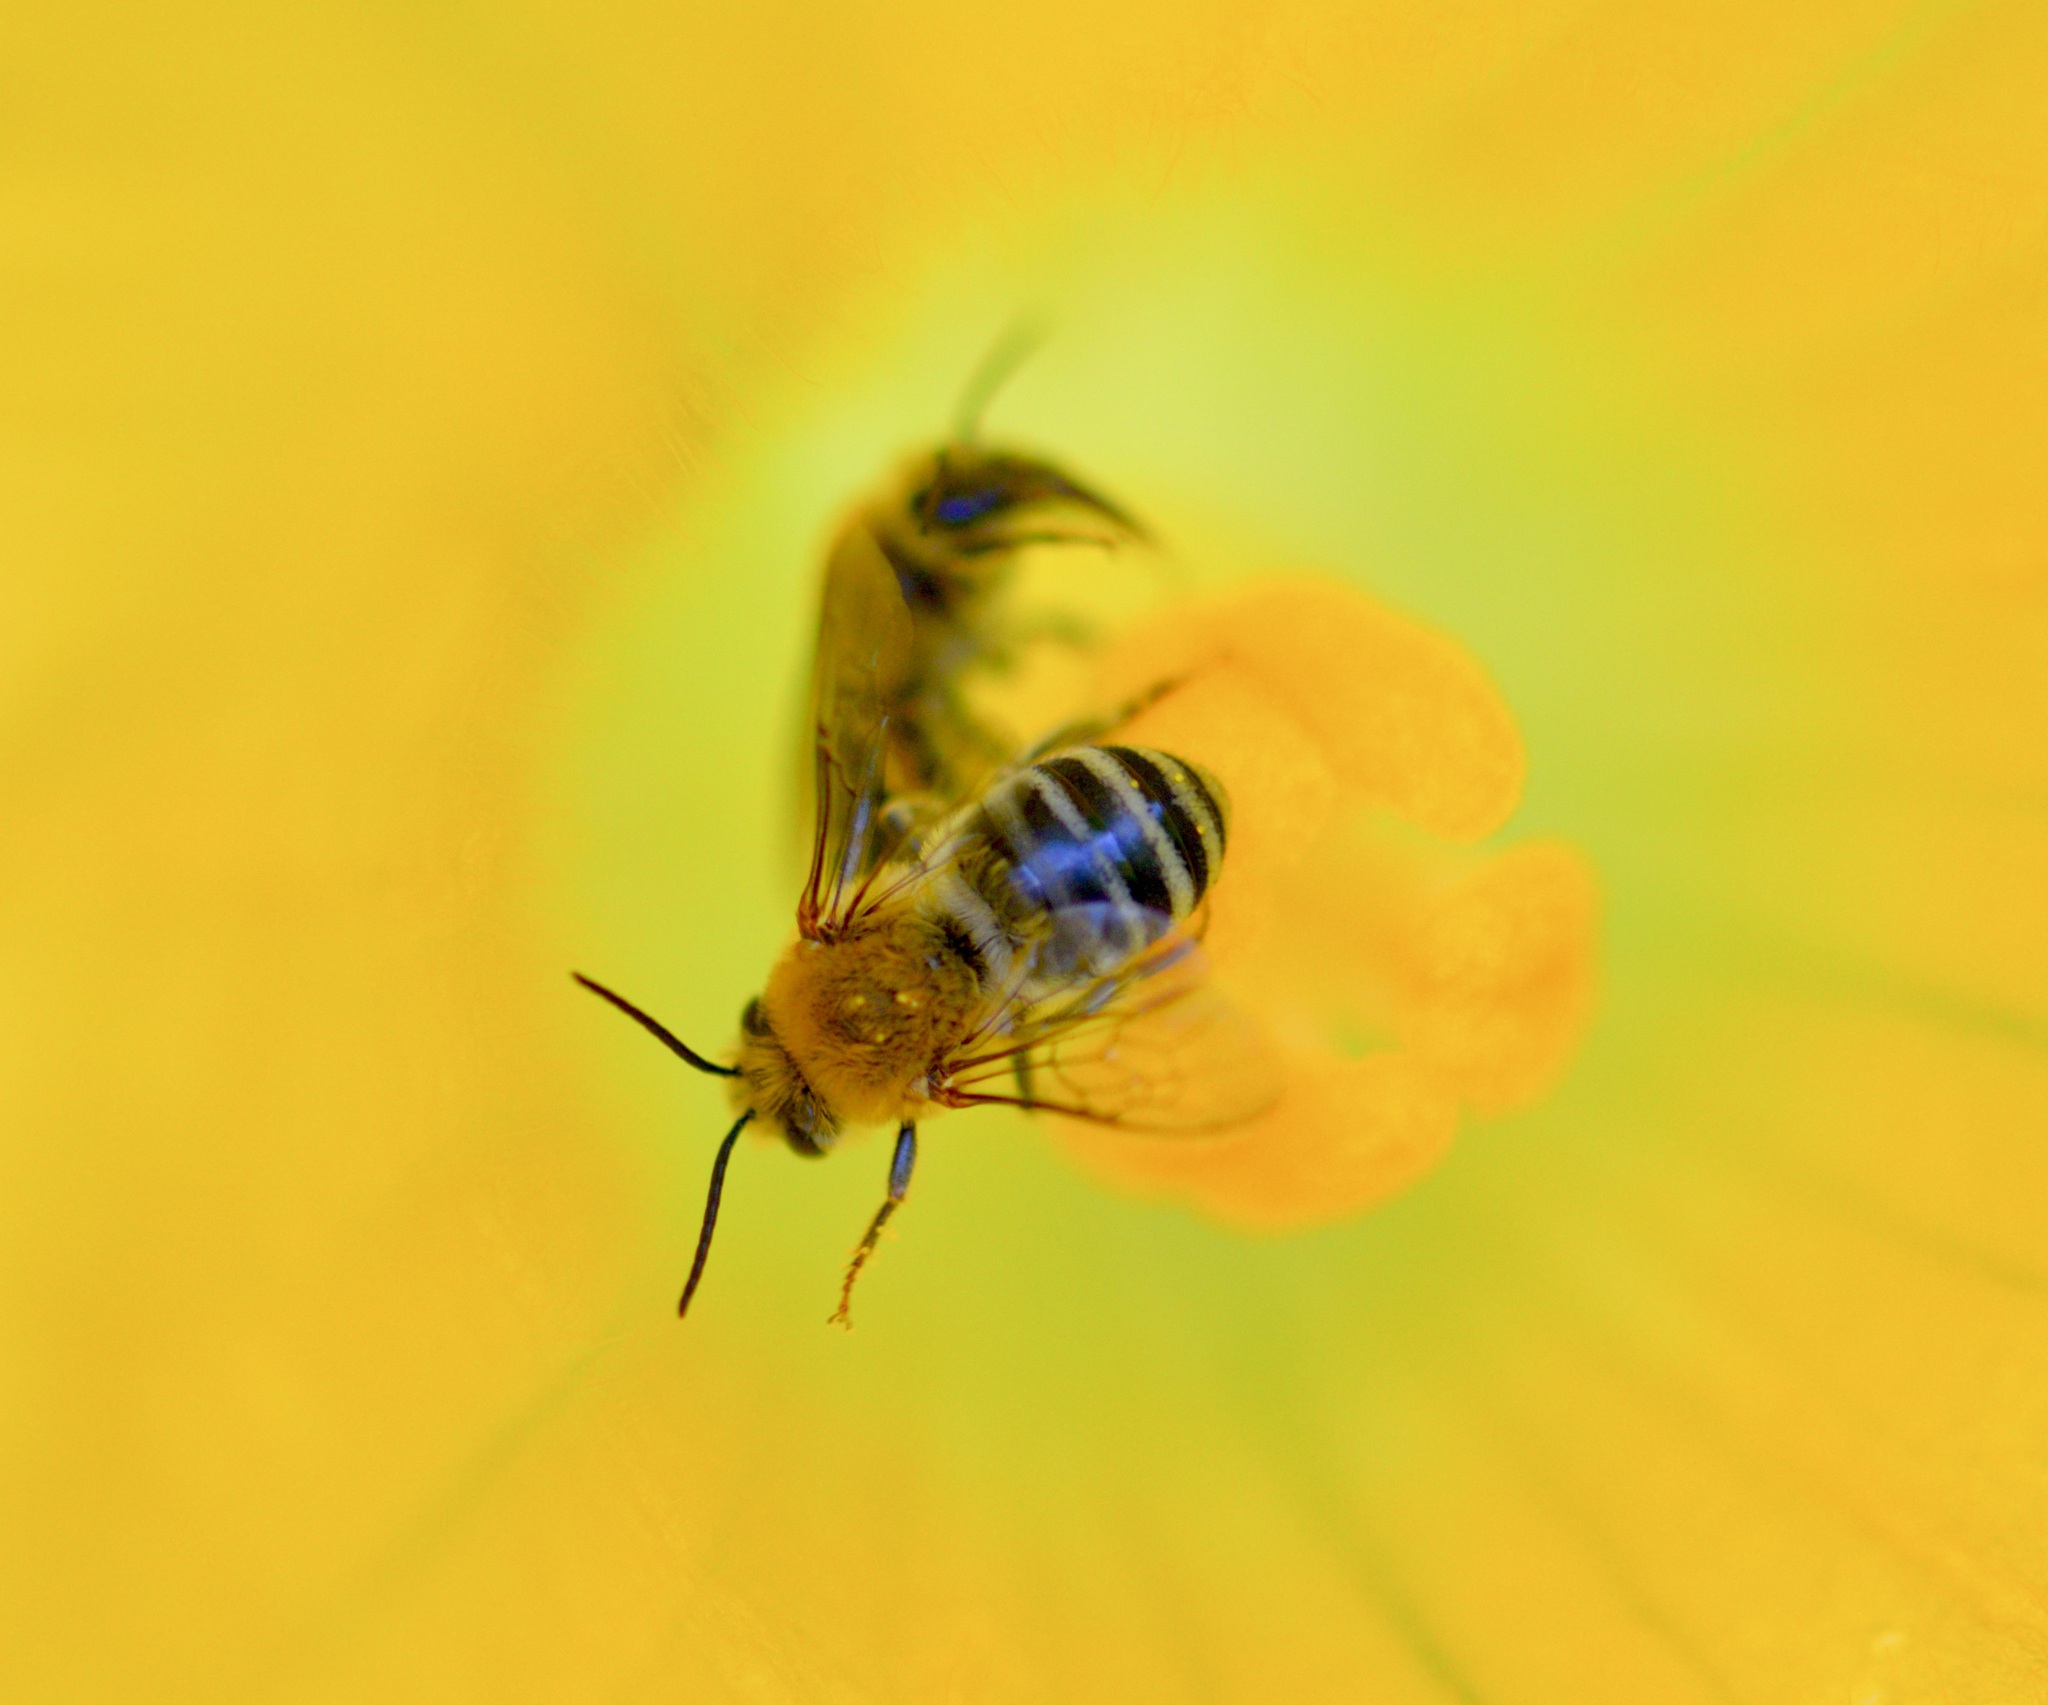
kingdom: Animalia
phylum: Arthropoda
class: Insecta
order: Hymenoptera
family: Apidae
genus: Peponapis
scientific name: Peponapis pruinosa
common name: Pruinose squash bee
